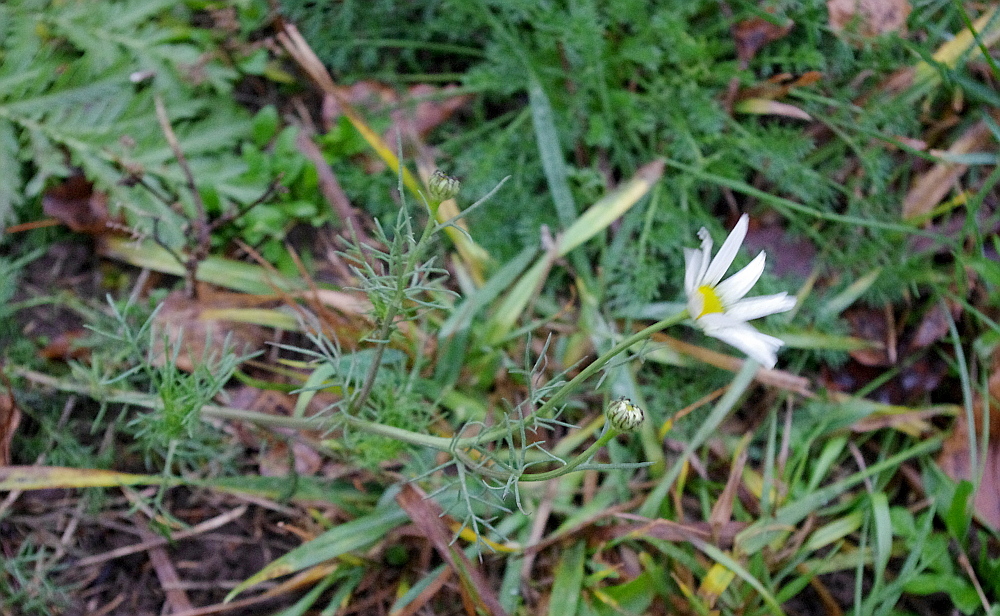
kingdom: Plantae
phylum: Tracheophyta
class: Magnoliopsida
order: Asterales
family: Asteraceae
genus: Tripleurospermum
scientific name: Tripleurospermum inodorum
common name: Scentless mayweed
